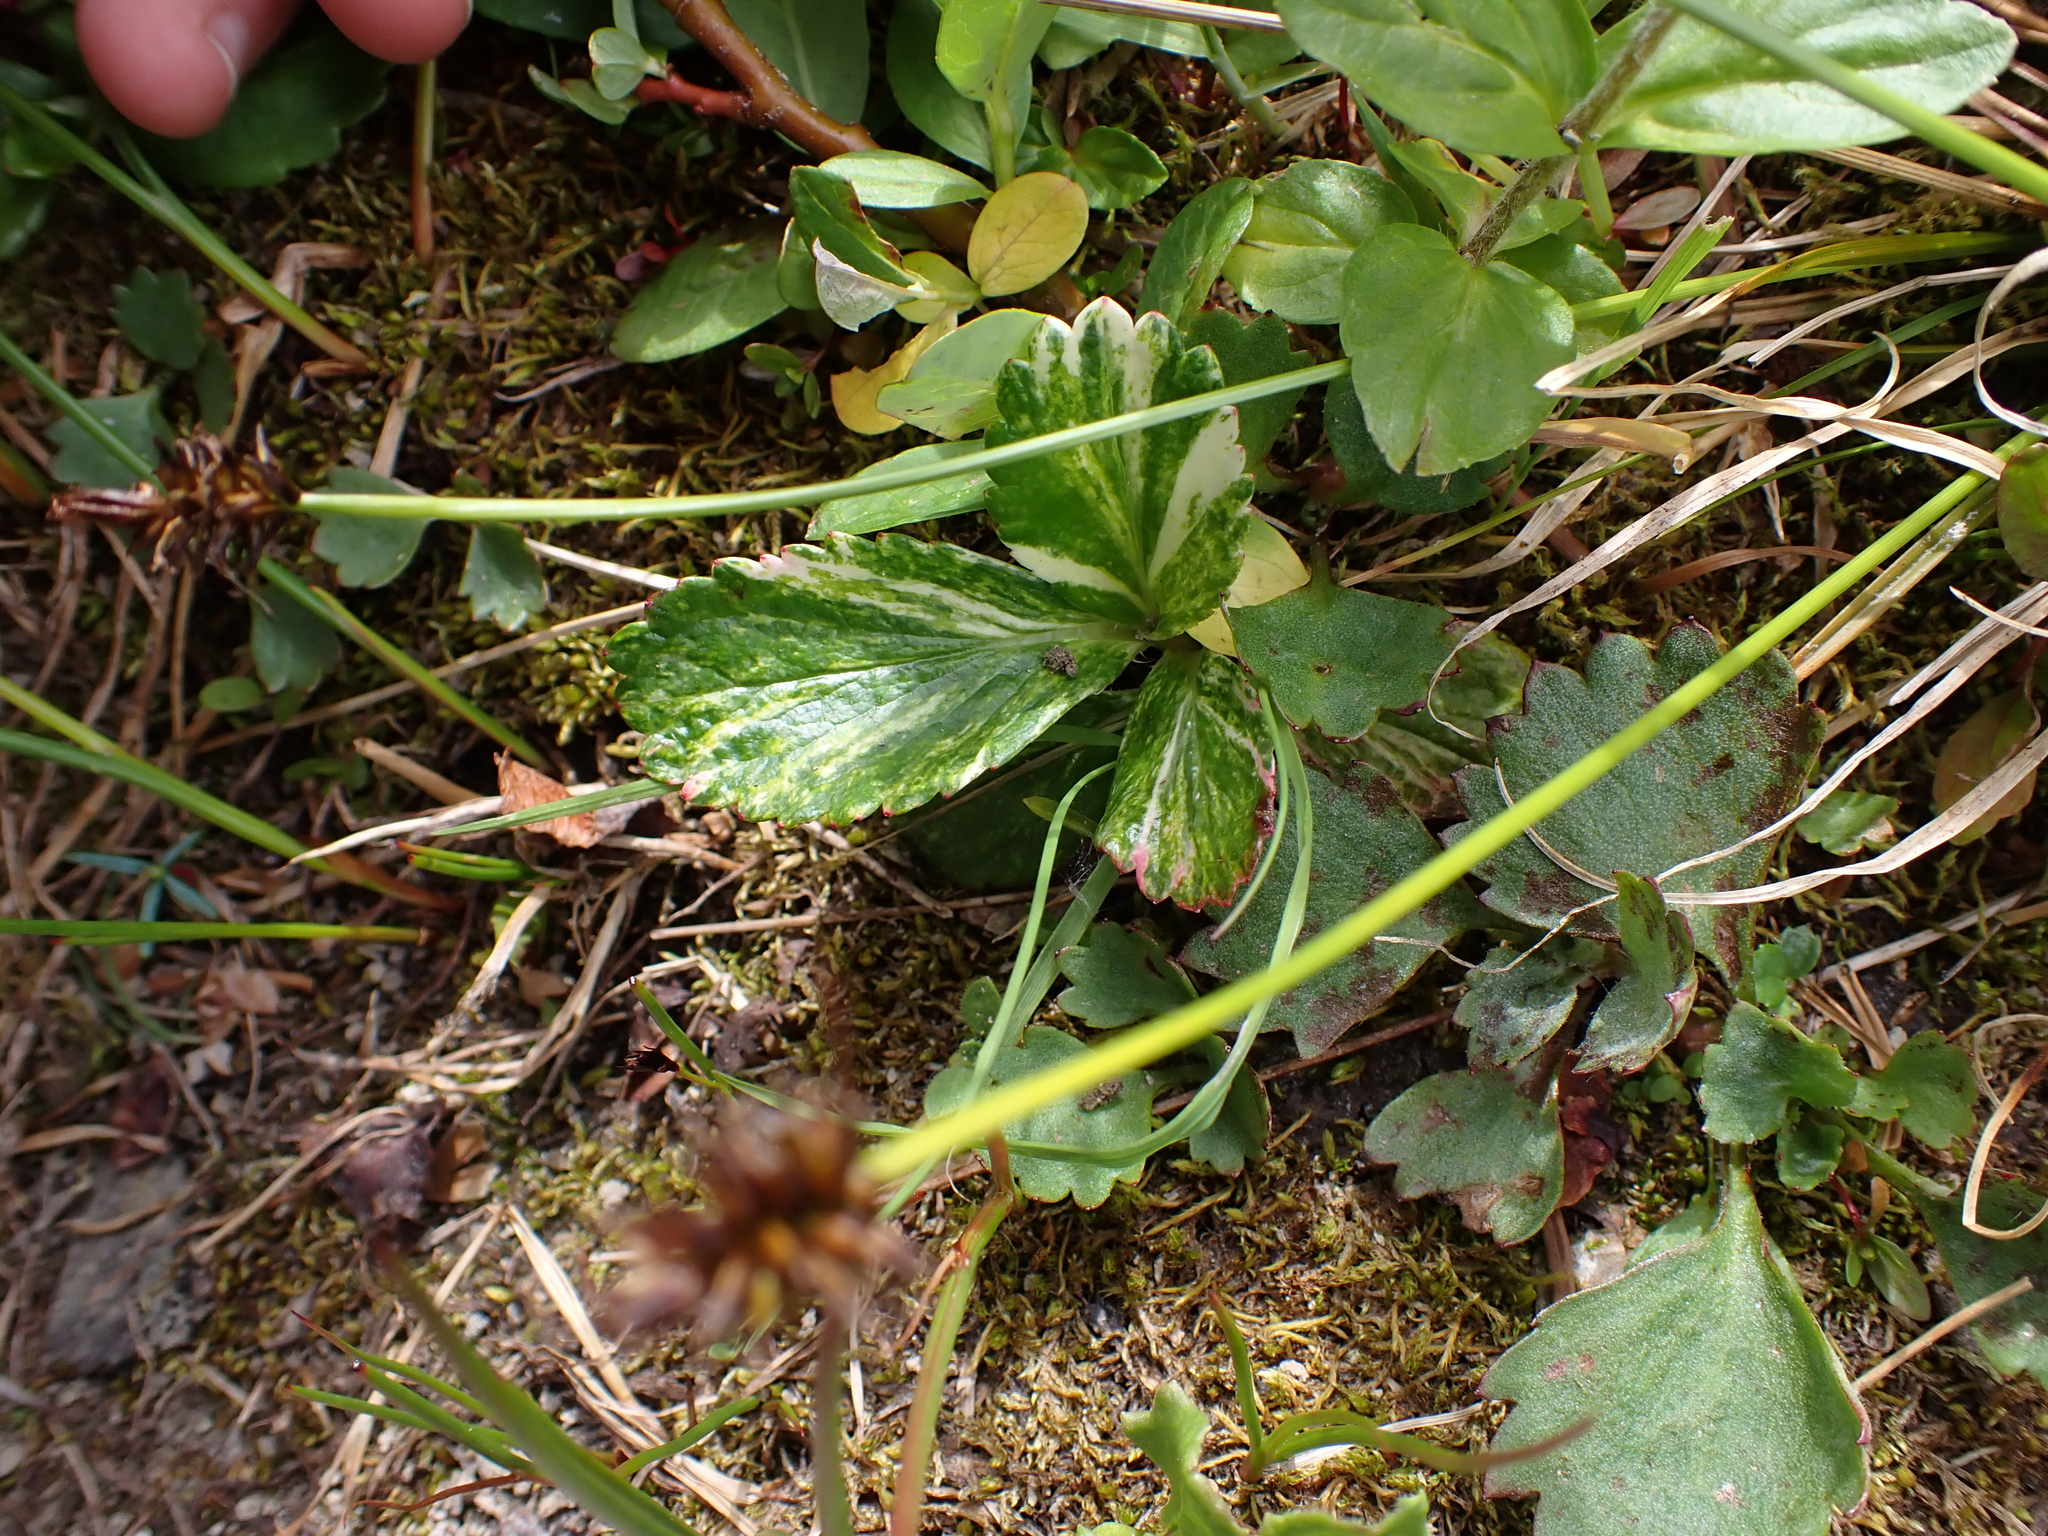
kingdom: Plantae
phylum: Tracheophyta
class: Magnoliopsida
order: Saxifragales
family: Saxifragaceae
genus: Leptarrhena
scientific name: Leptarrhena pyrolifolia
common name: Leatherleaf-saxifrage
